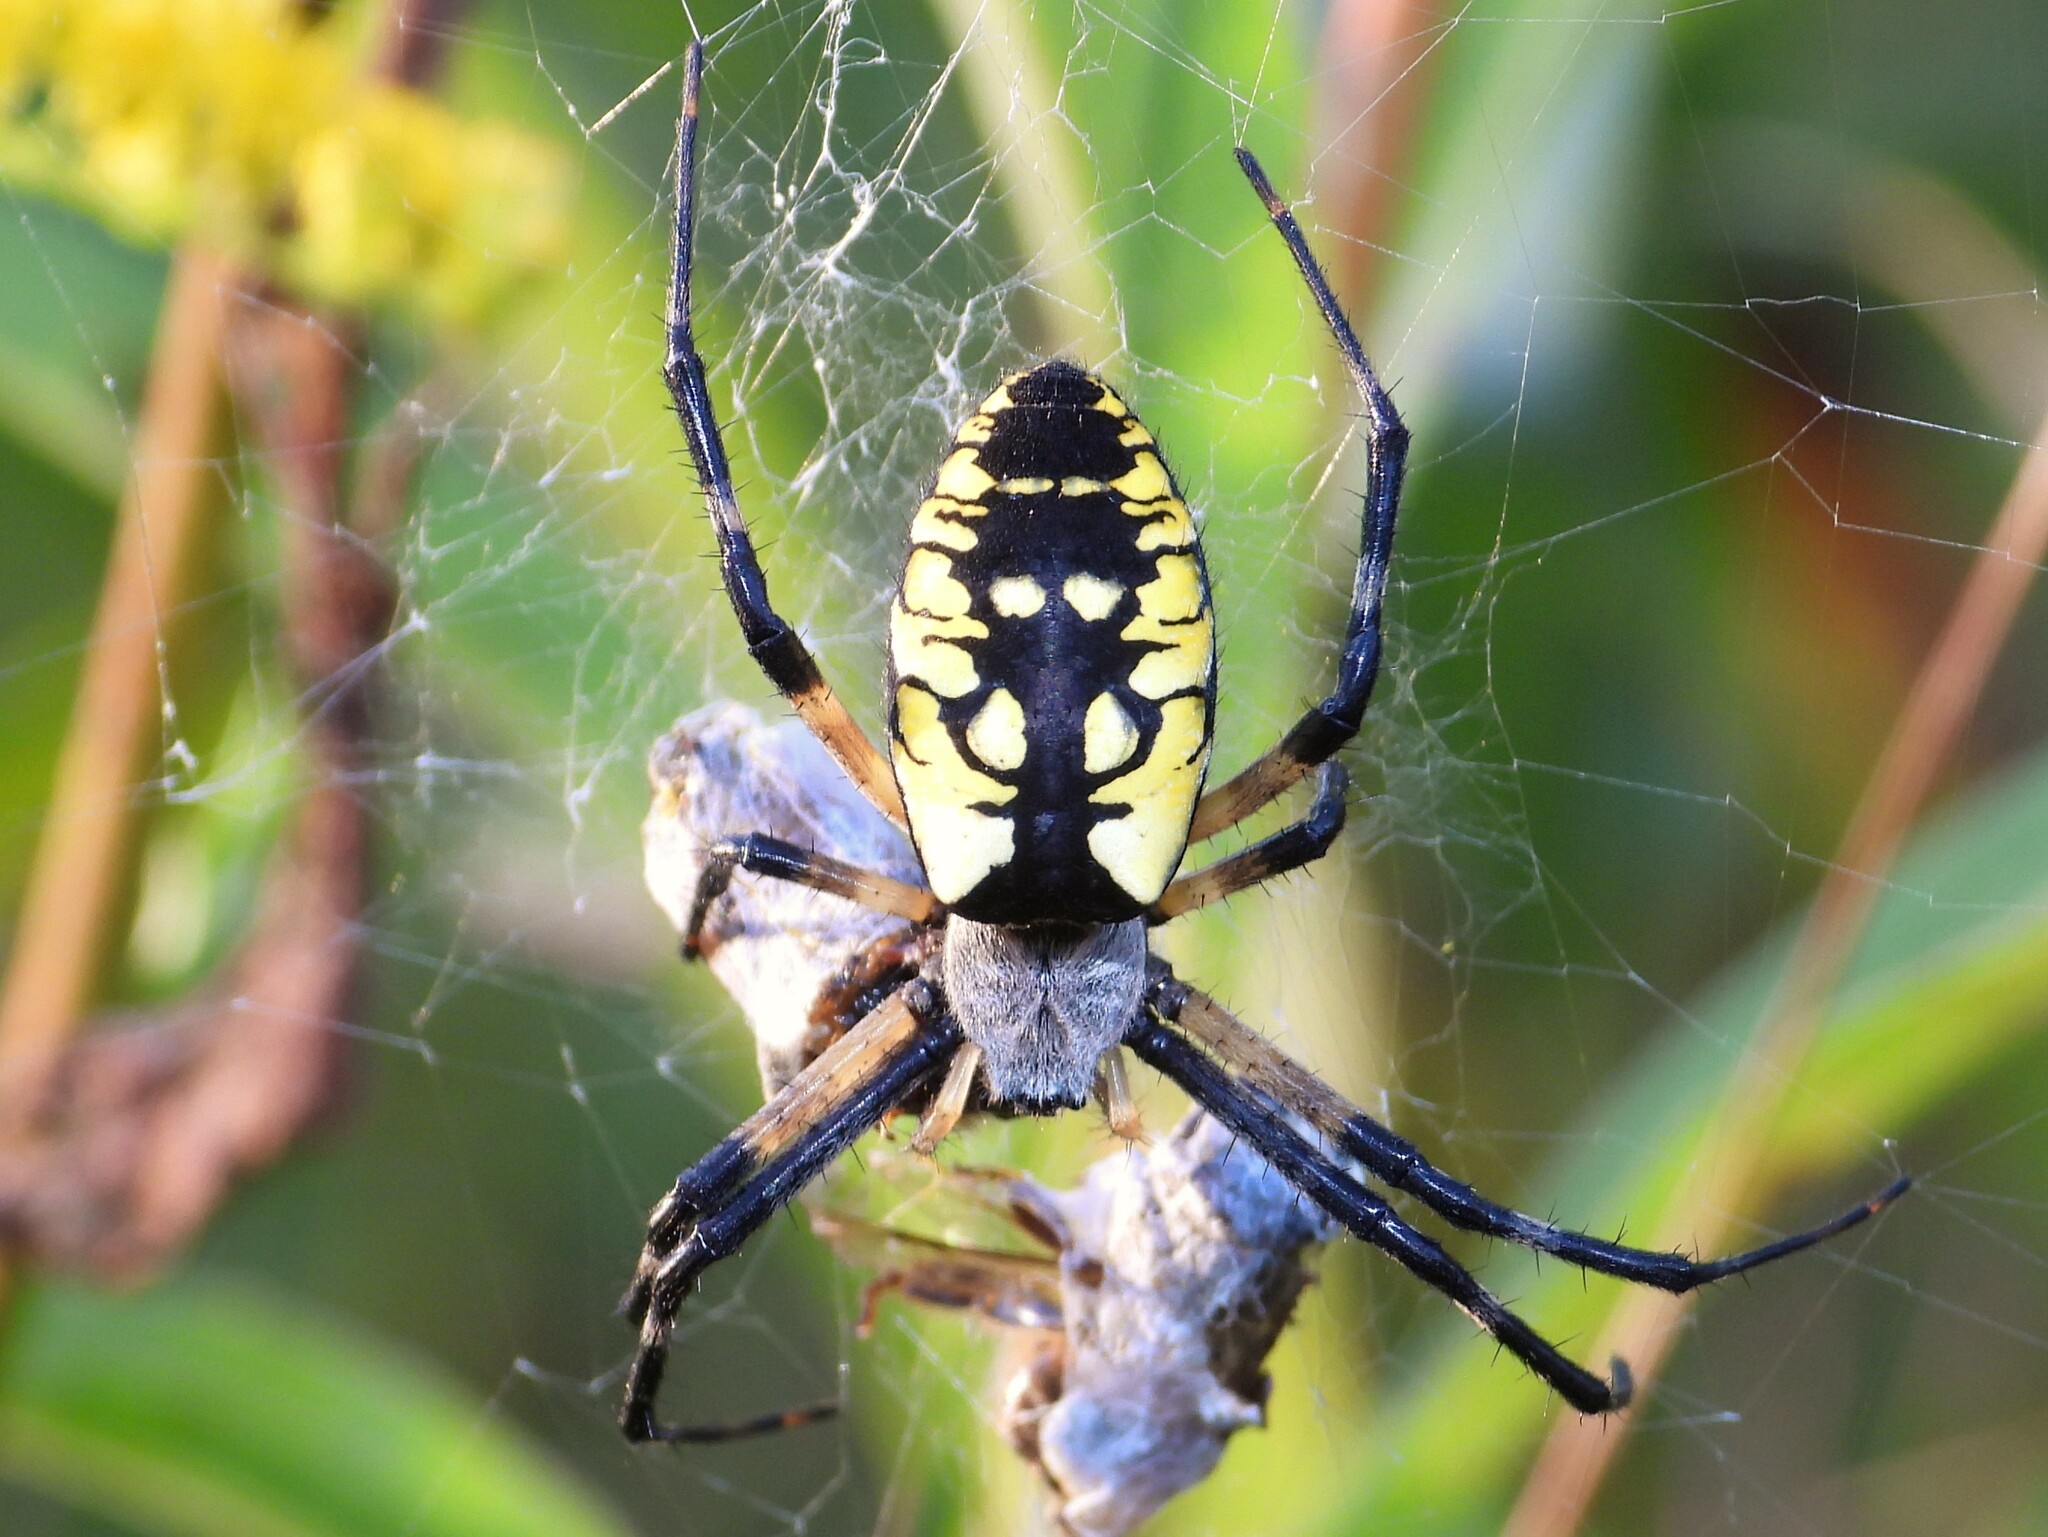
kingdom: Animalia
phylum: Arthropoda
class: Arachnida
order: Araneae
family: Araneidae
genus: Argiope
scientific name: Argiope aurantia
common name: Orb weavers
